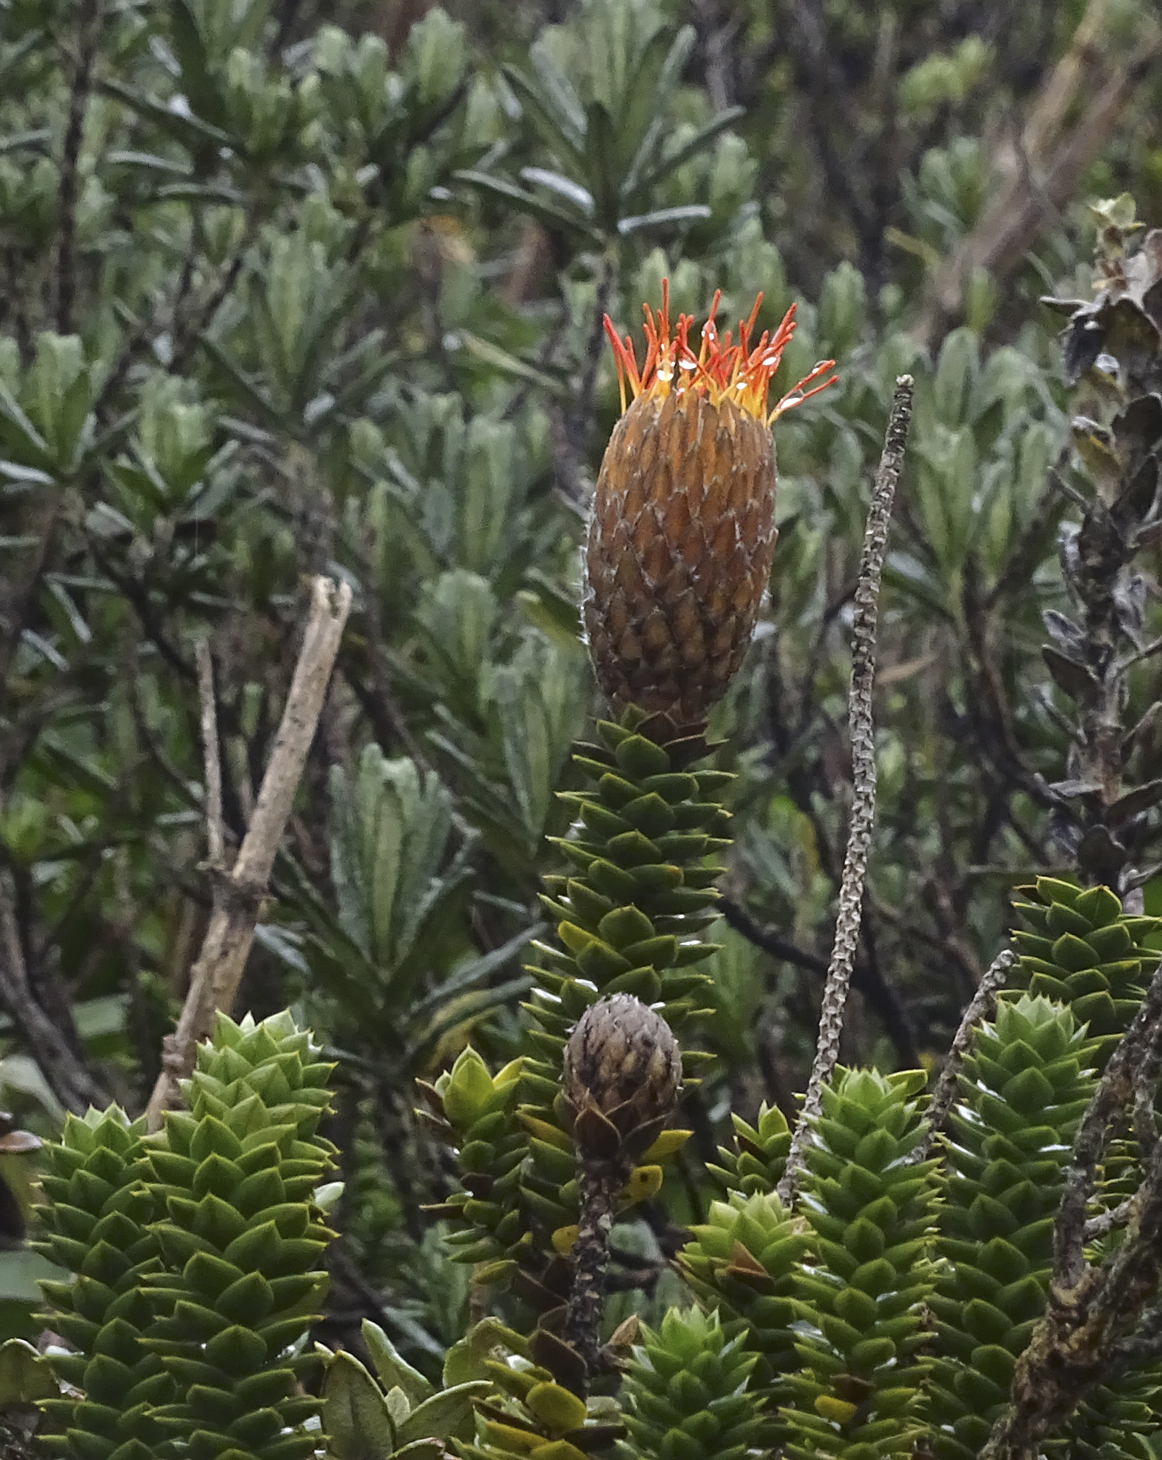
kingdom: Plantae
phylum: Tracheophyta
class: Magnoliopsida
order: Asterales
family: Asteraceae
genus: Chuquiraga
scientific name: Chuquiraga jussieui
